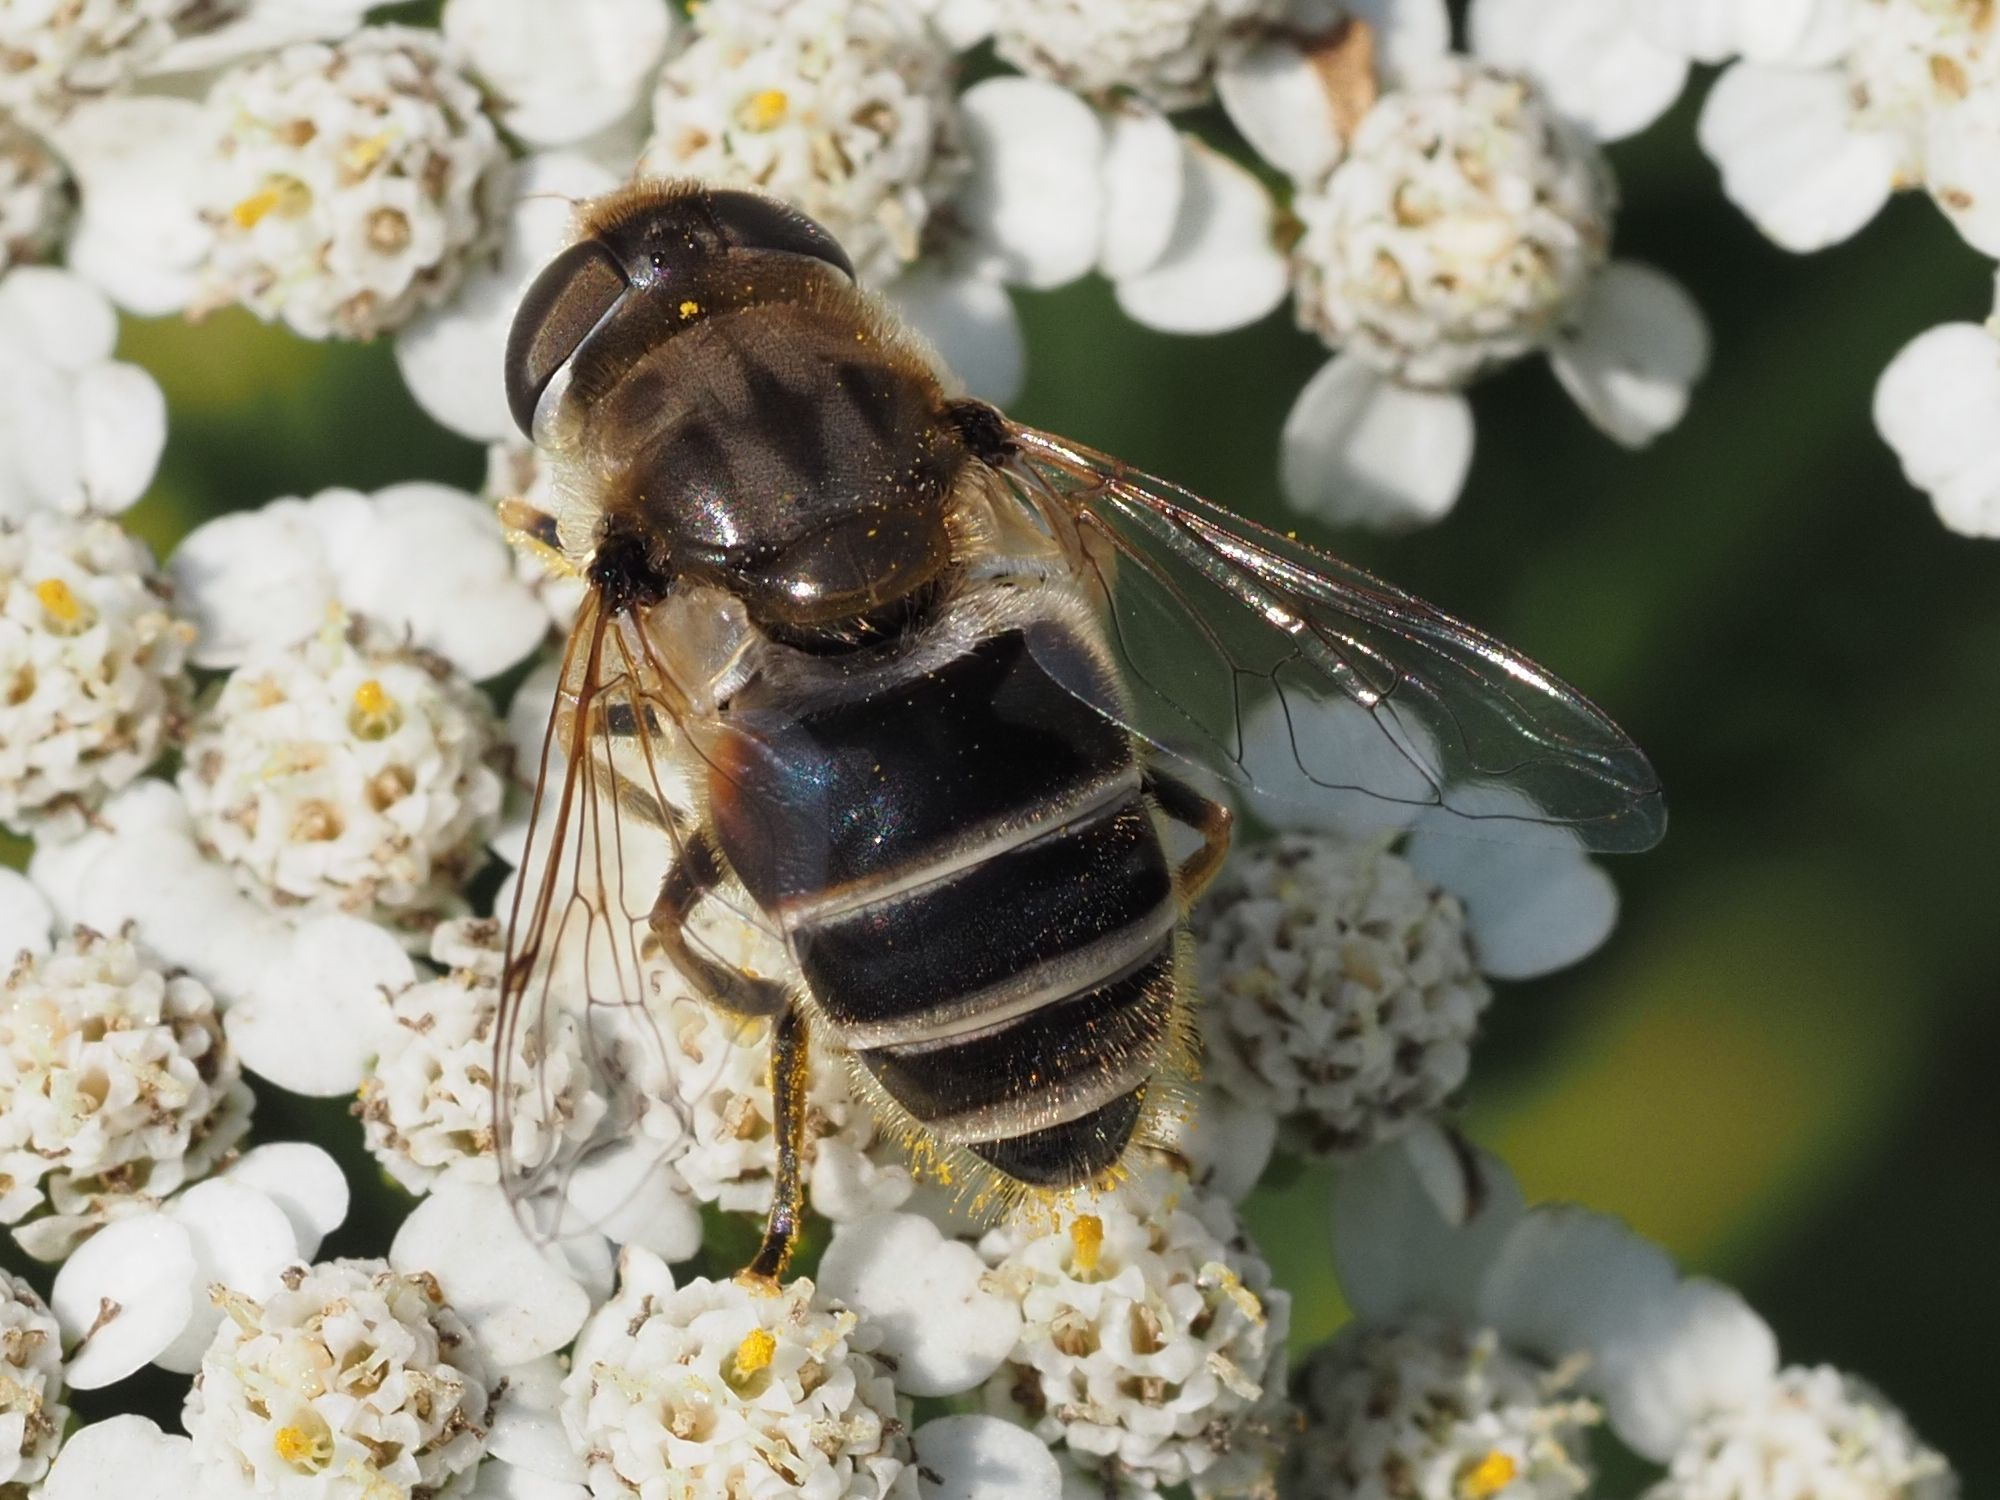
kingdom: Animalia
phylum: Arthropoda
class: Insecta
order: Diptera
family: Syrphidae
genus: Eristalis
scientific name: Eristalis arbustorum
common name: Hover fly
